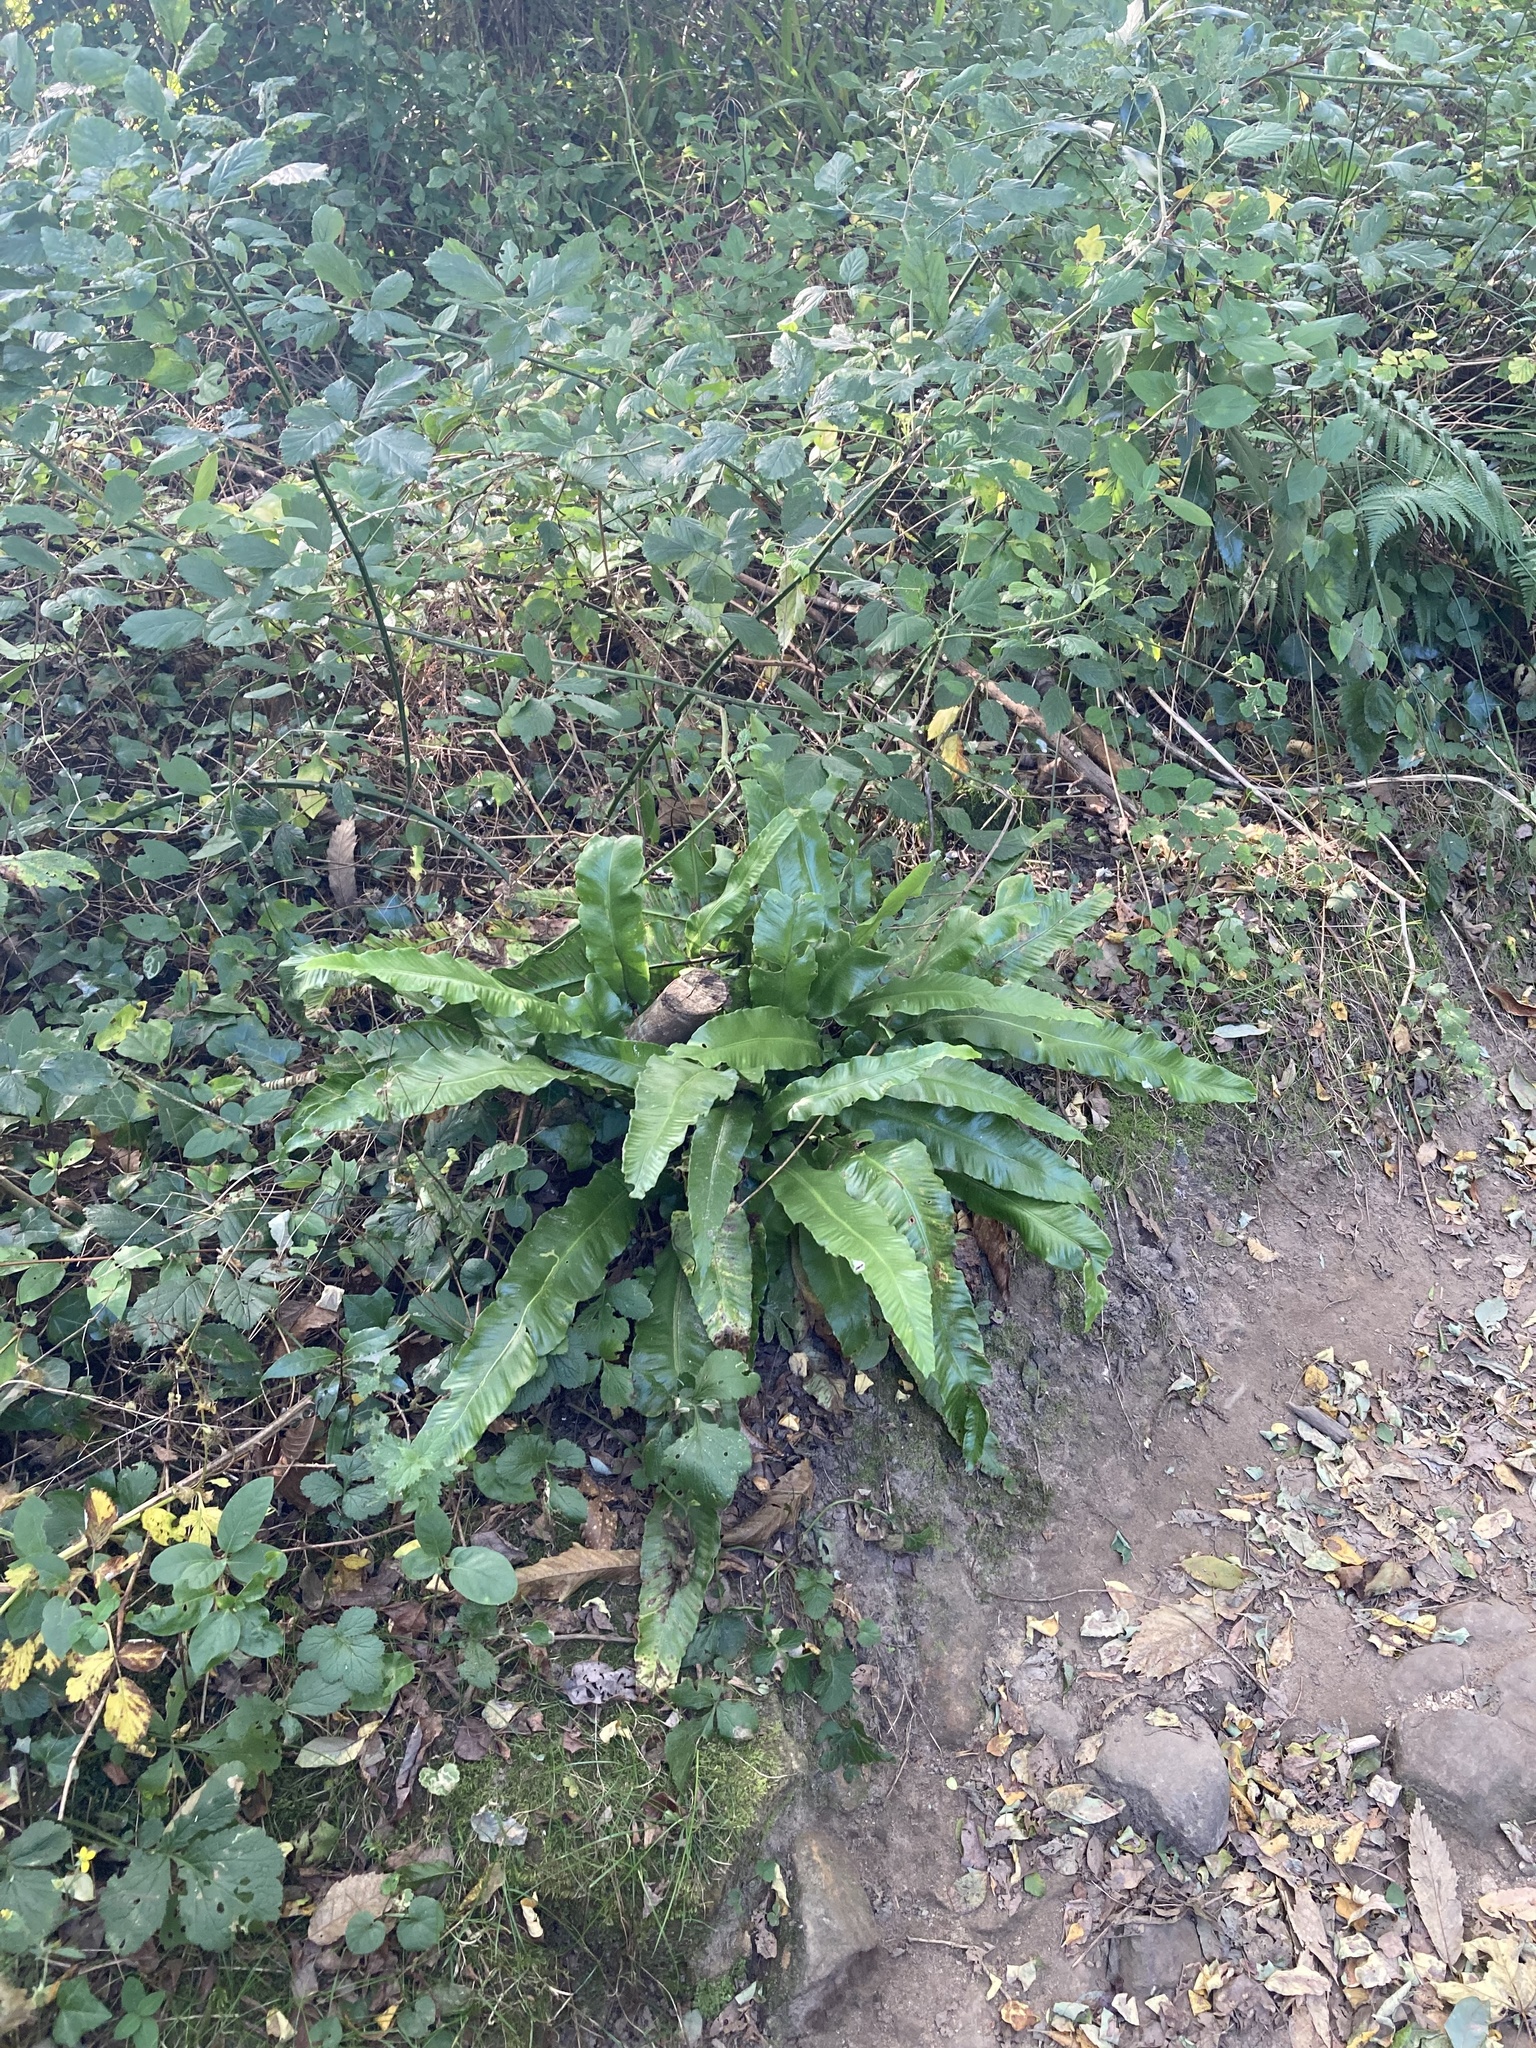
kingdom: Plantae
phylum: Tracheophyta
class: Polypodiopsida
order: Polypodiales
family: Aspleniaceae
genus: Asplenium
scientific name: Asplenium scolopendrium
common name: Hart's-tongue fern
